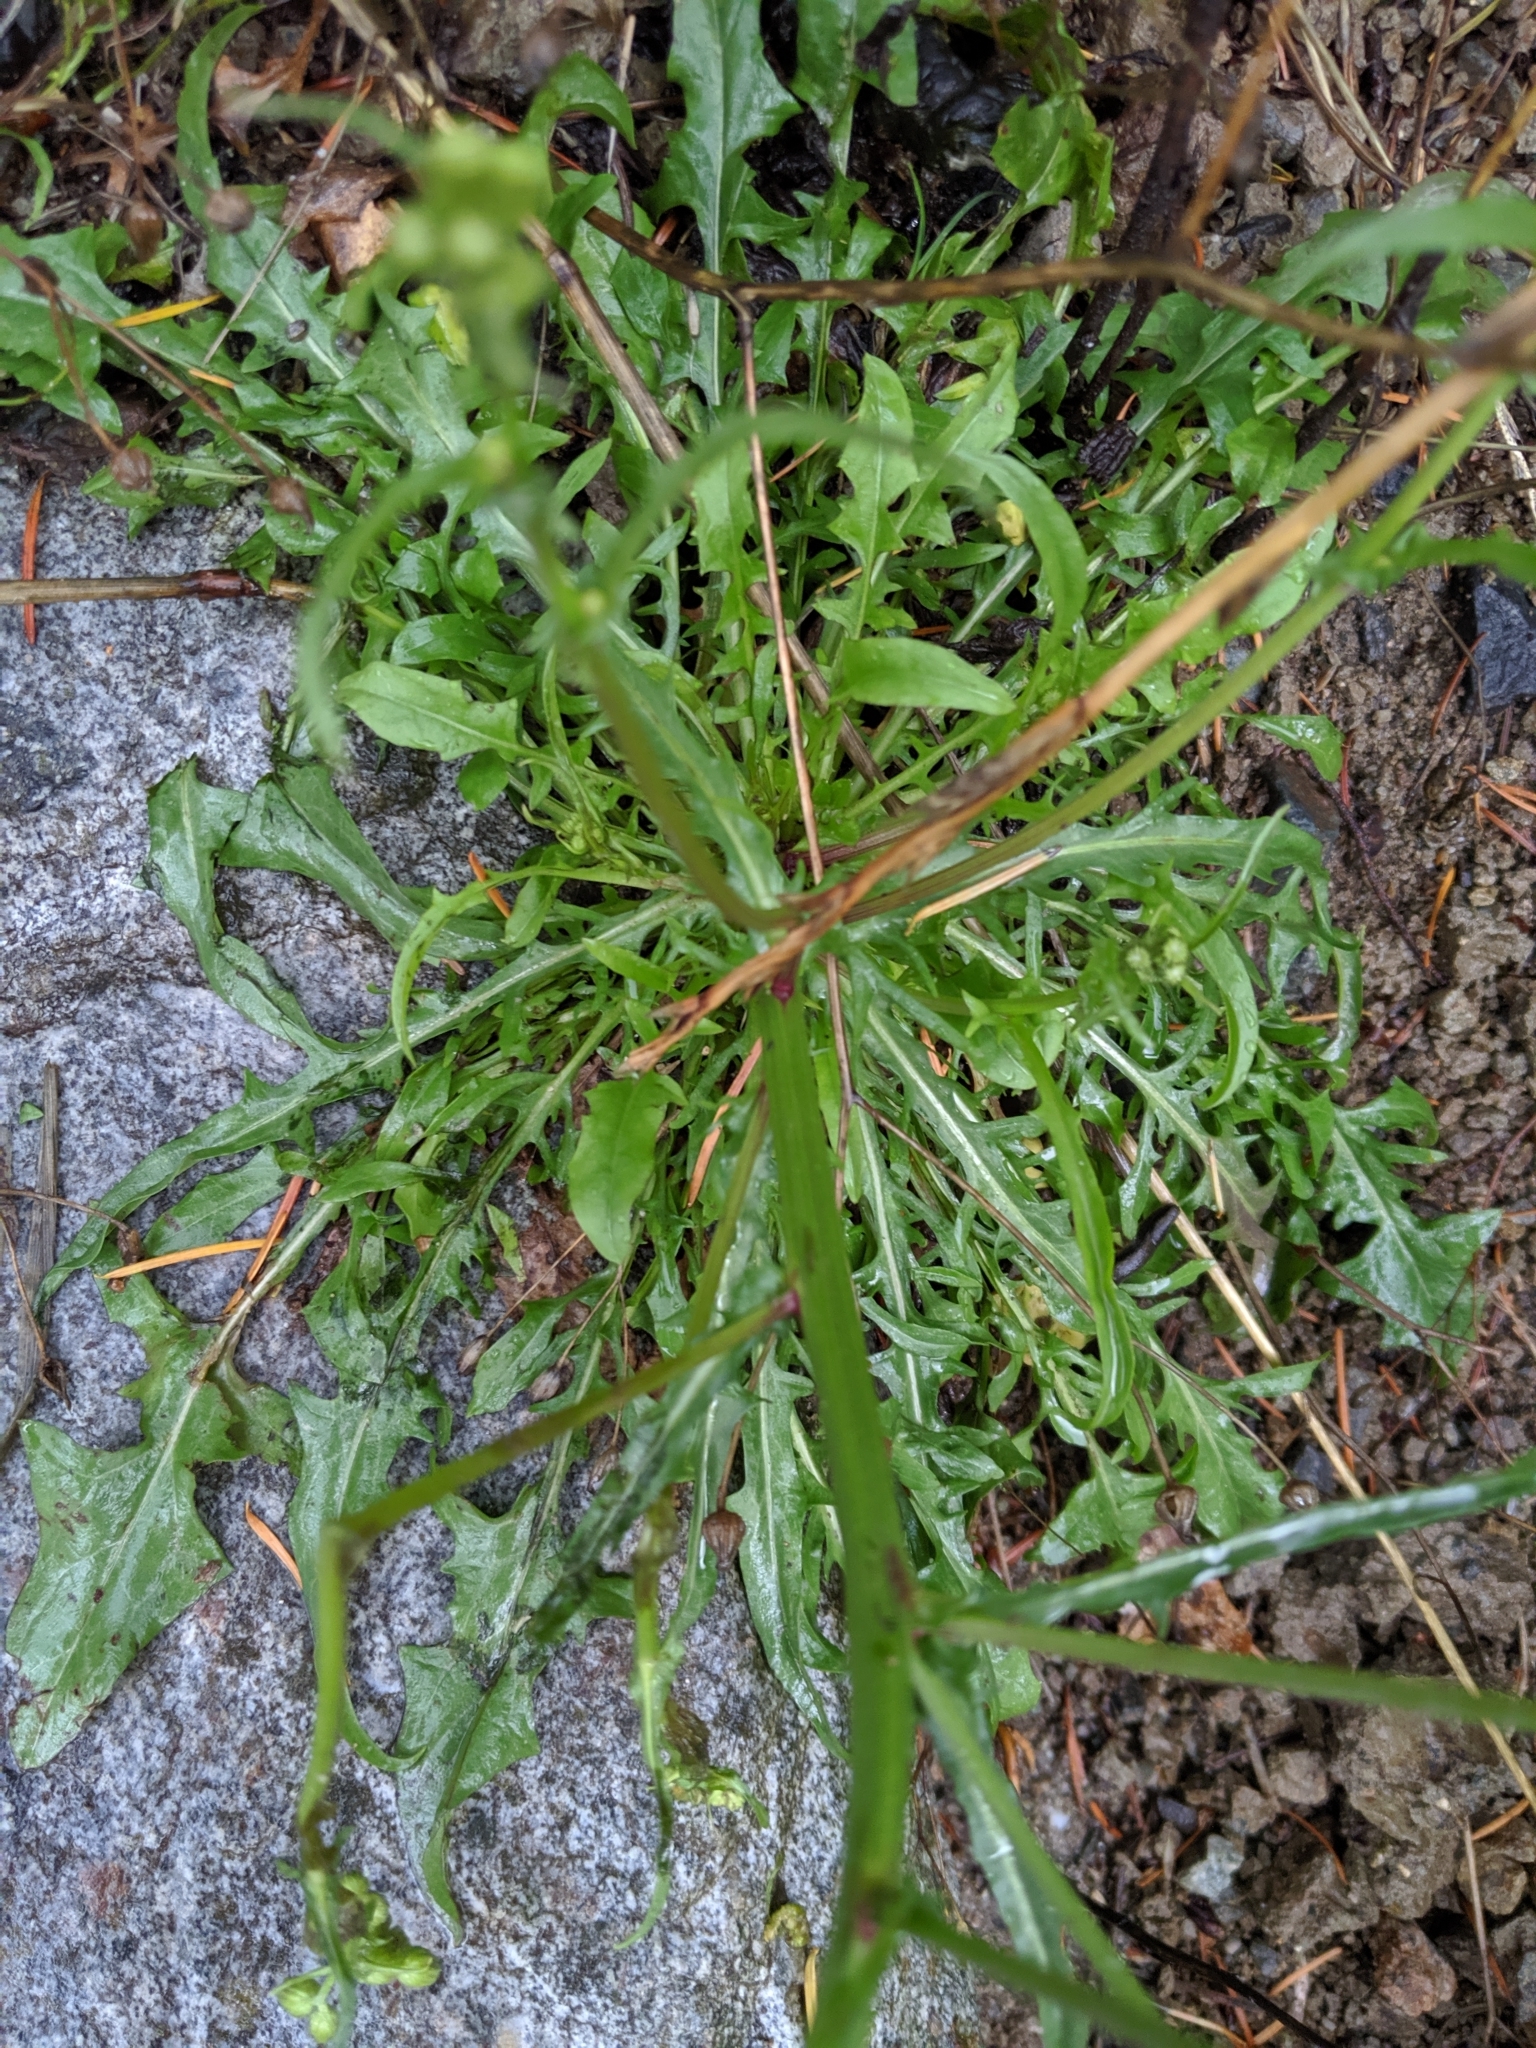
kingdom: Plantae
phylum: Tracheophyta
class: Magnoliopsida
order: Asterales
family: Asteraceae
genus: Crepis
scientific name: Crepis capillaris
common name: Smooth hawksbeard
